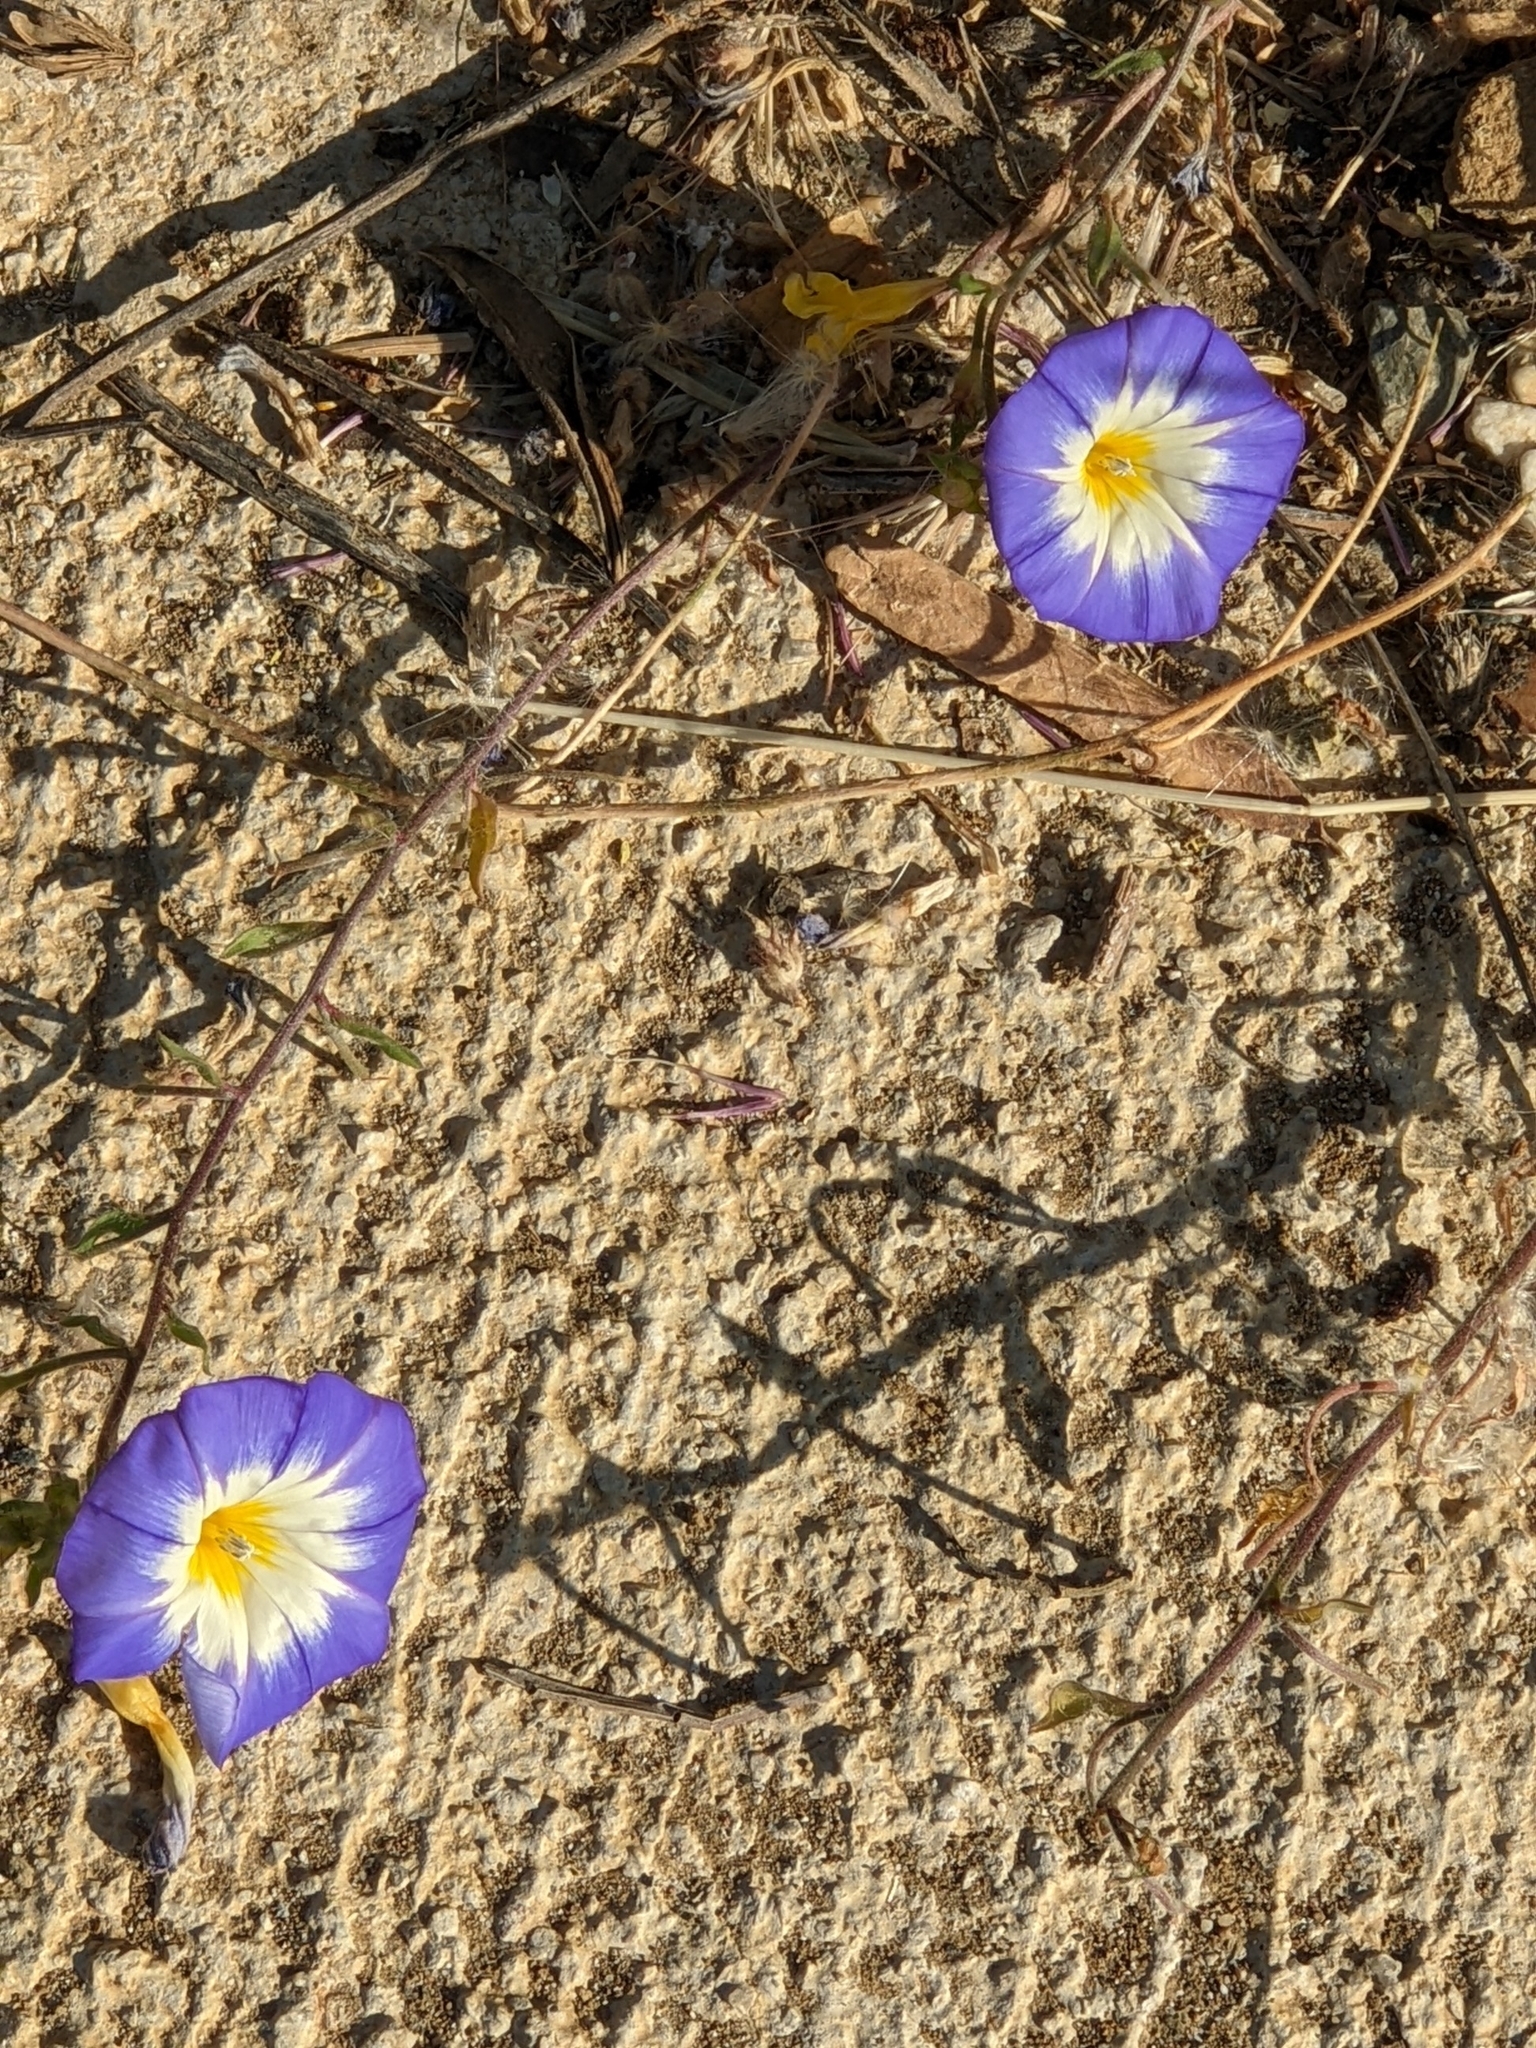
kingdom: Plantae
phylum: Tracheophyta
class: Magnoliopsida
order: Solanales
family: Convolvulaceae
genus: Convolvulus
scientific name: Convolvulus tricolor
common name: Dwarf morning-glory
